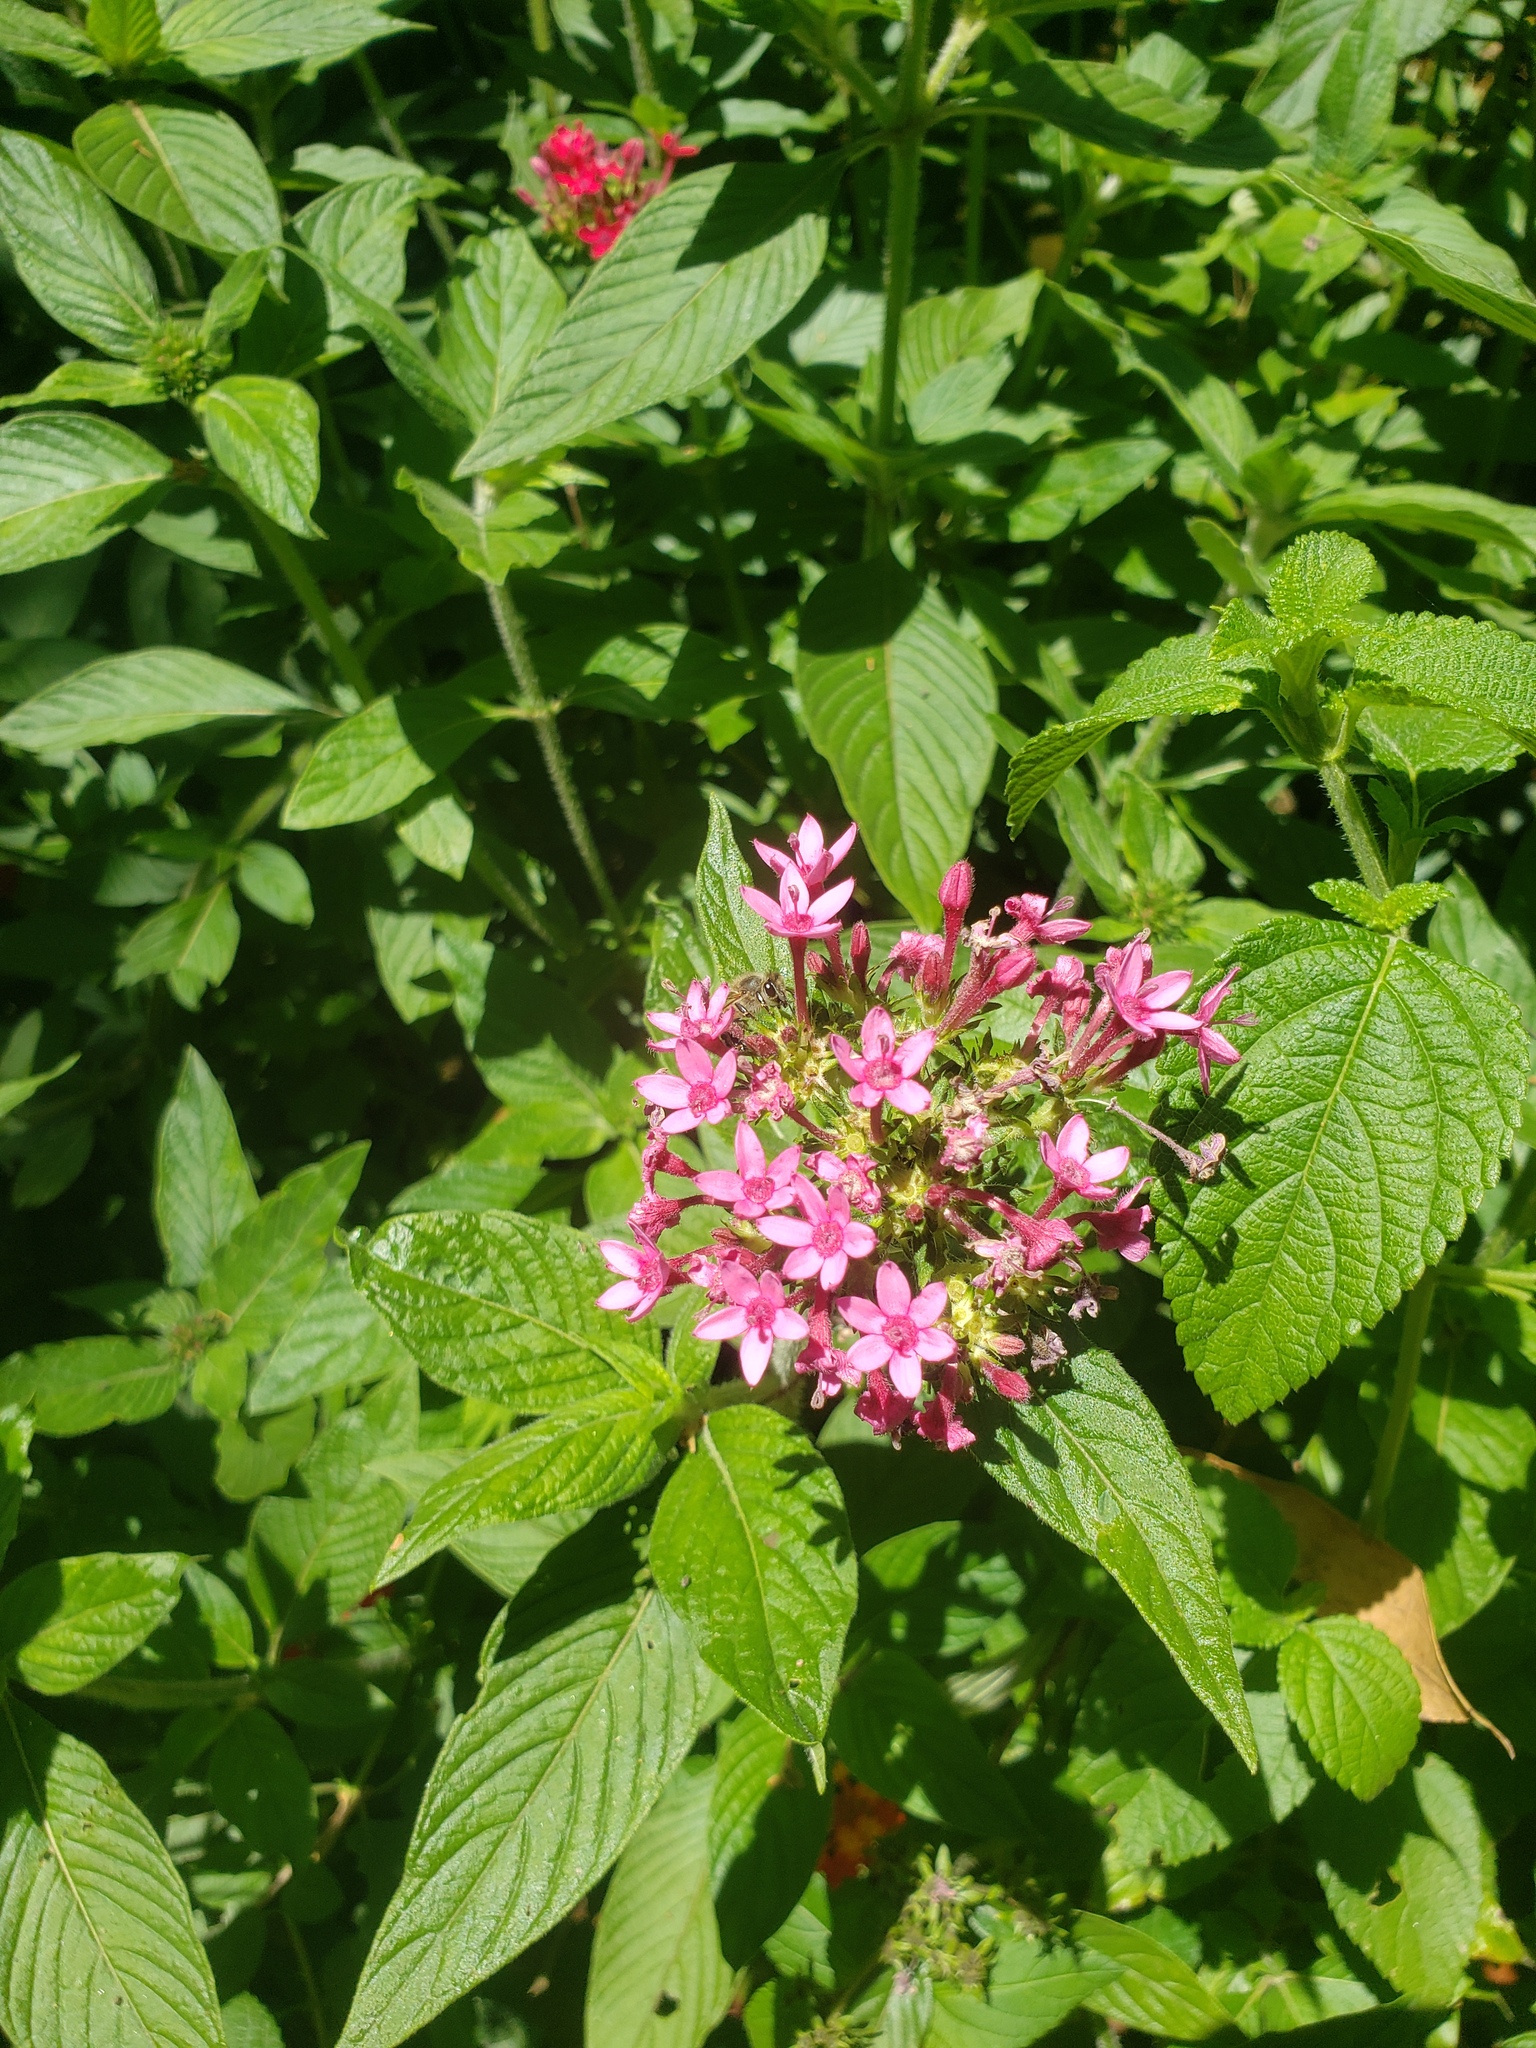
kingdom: Plantae
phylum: Tracheophyta
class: Magnoliopsida
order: Gentianales
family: Rubiaceae
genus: Pentas
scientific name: Pentas lanceolata
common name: Egyptian starcluster
